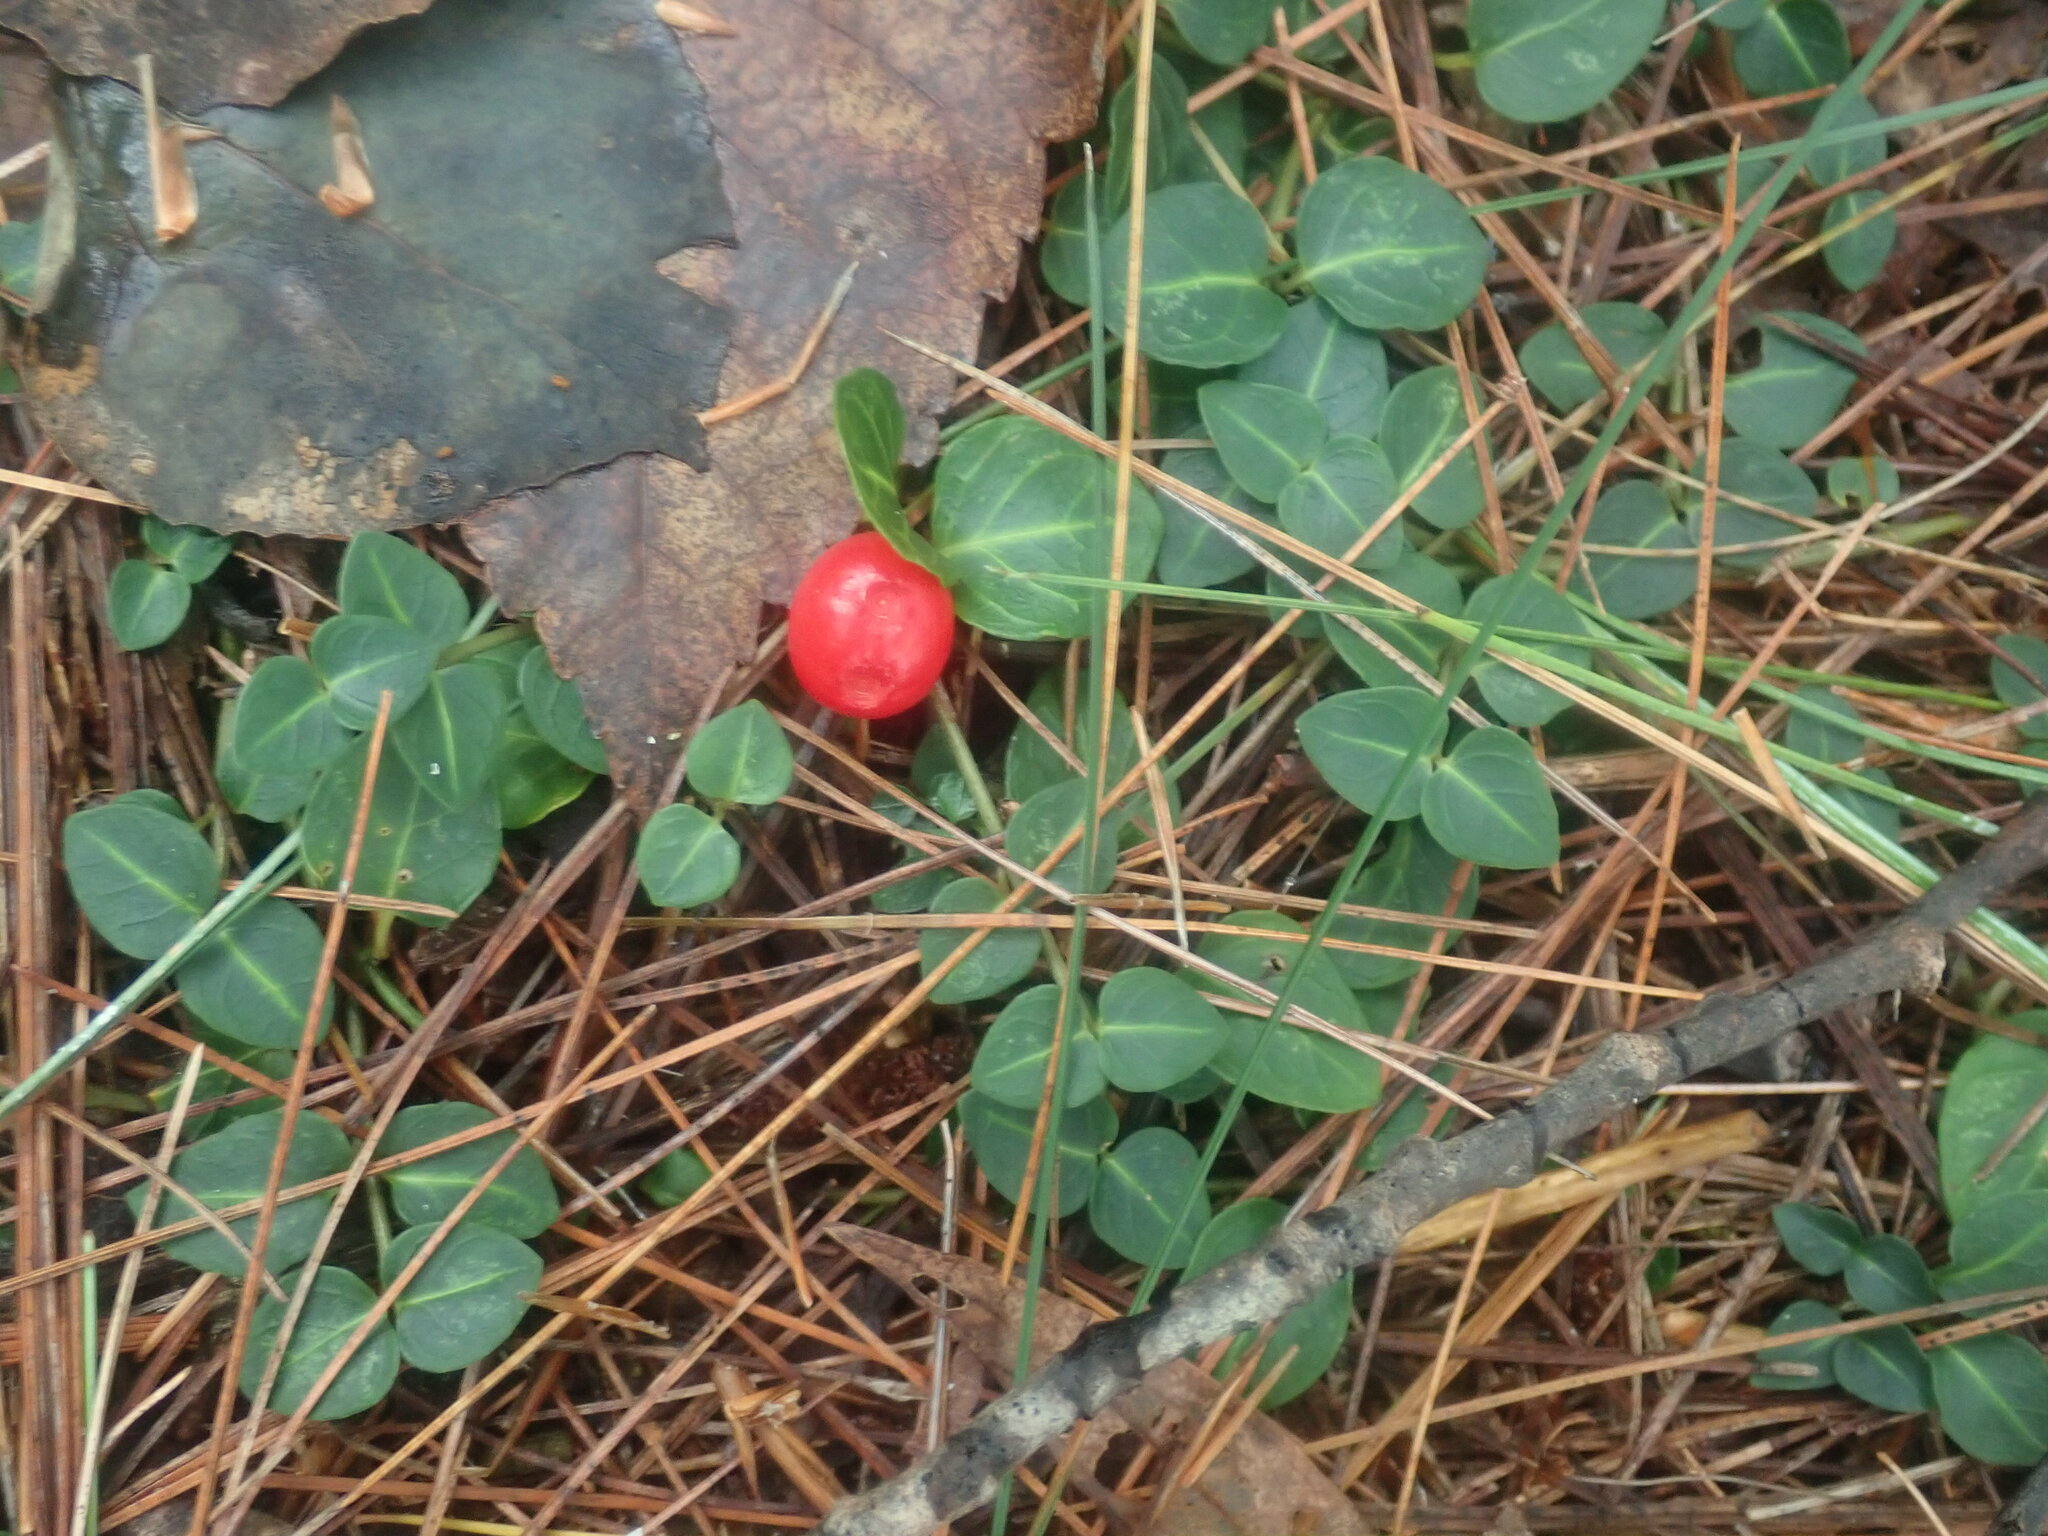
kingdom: Plantae
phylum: Tracheophyta
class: Magnoliopsida
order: Gentianales
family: Rubiaceae
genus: Mitchella
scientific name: Mitchella repens
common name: Partridge-berry
